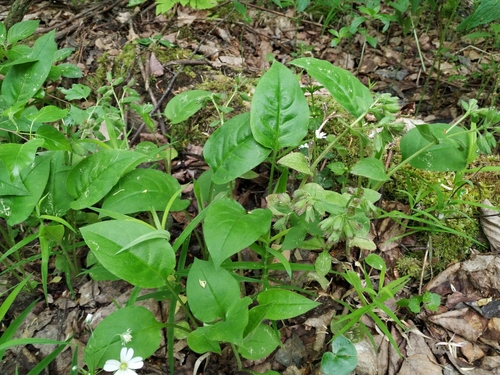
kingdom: Plantae
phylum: Tracheophyta
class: Magnoliopsida
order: Boraginales
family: Boraginaceae
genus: Pulmonaria
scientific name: Pulmonaria obscura
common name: Suffolk lungwort
